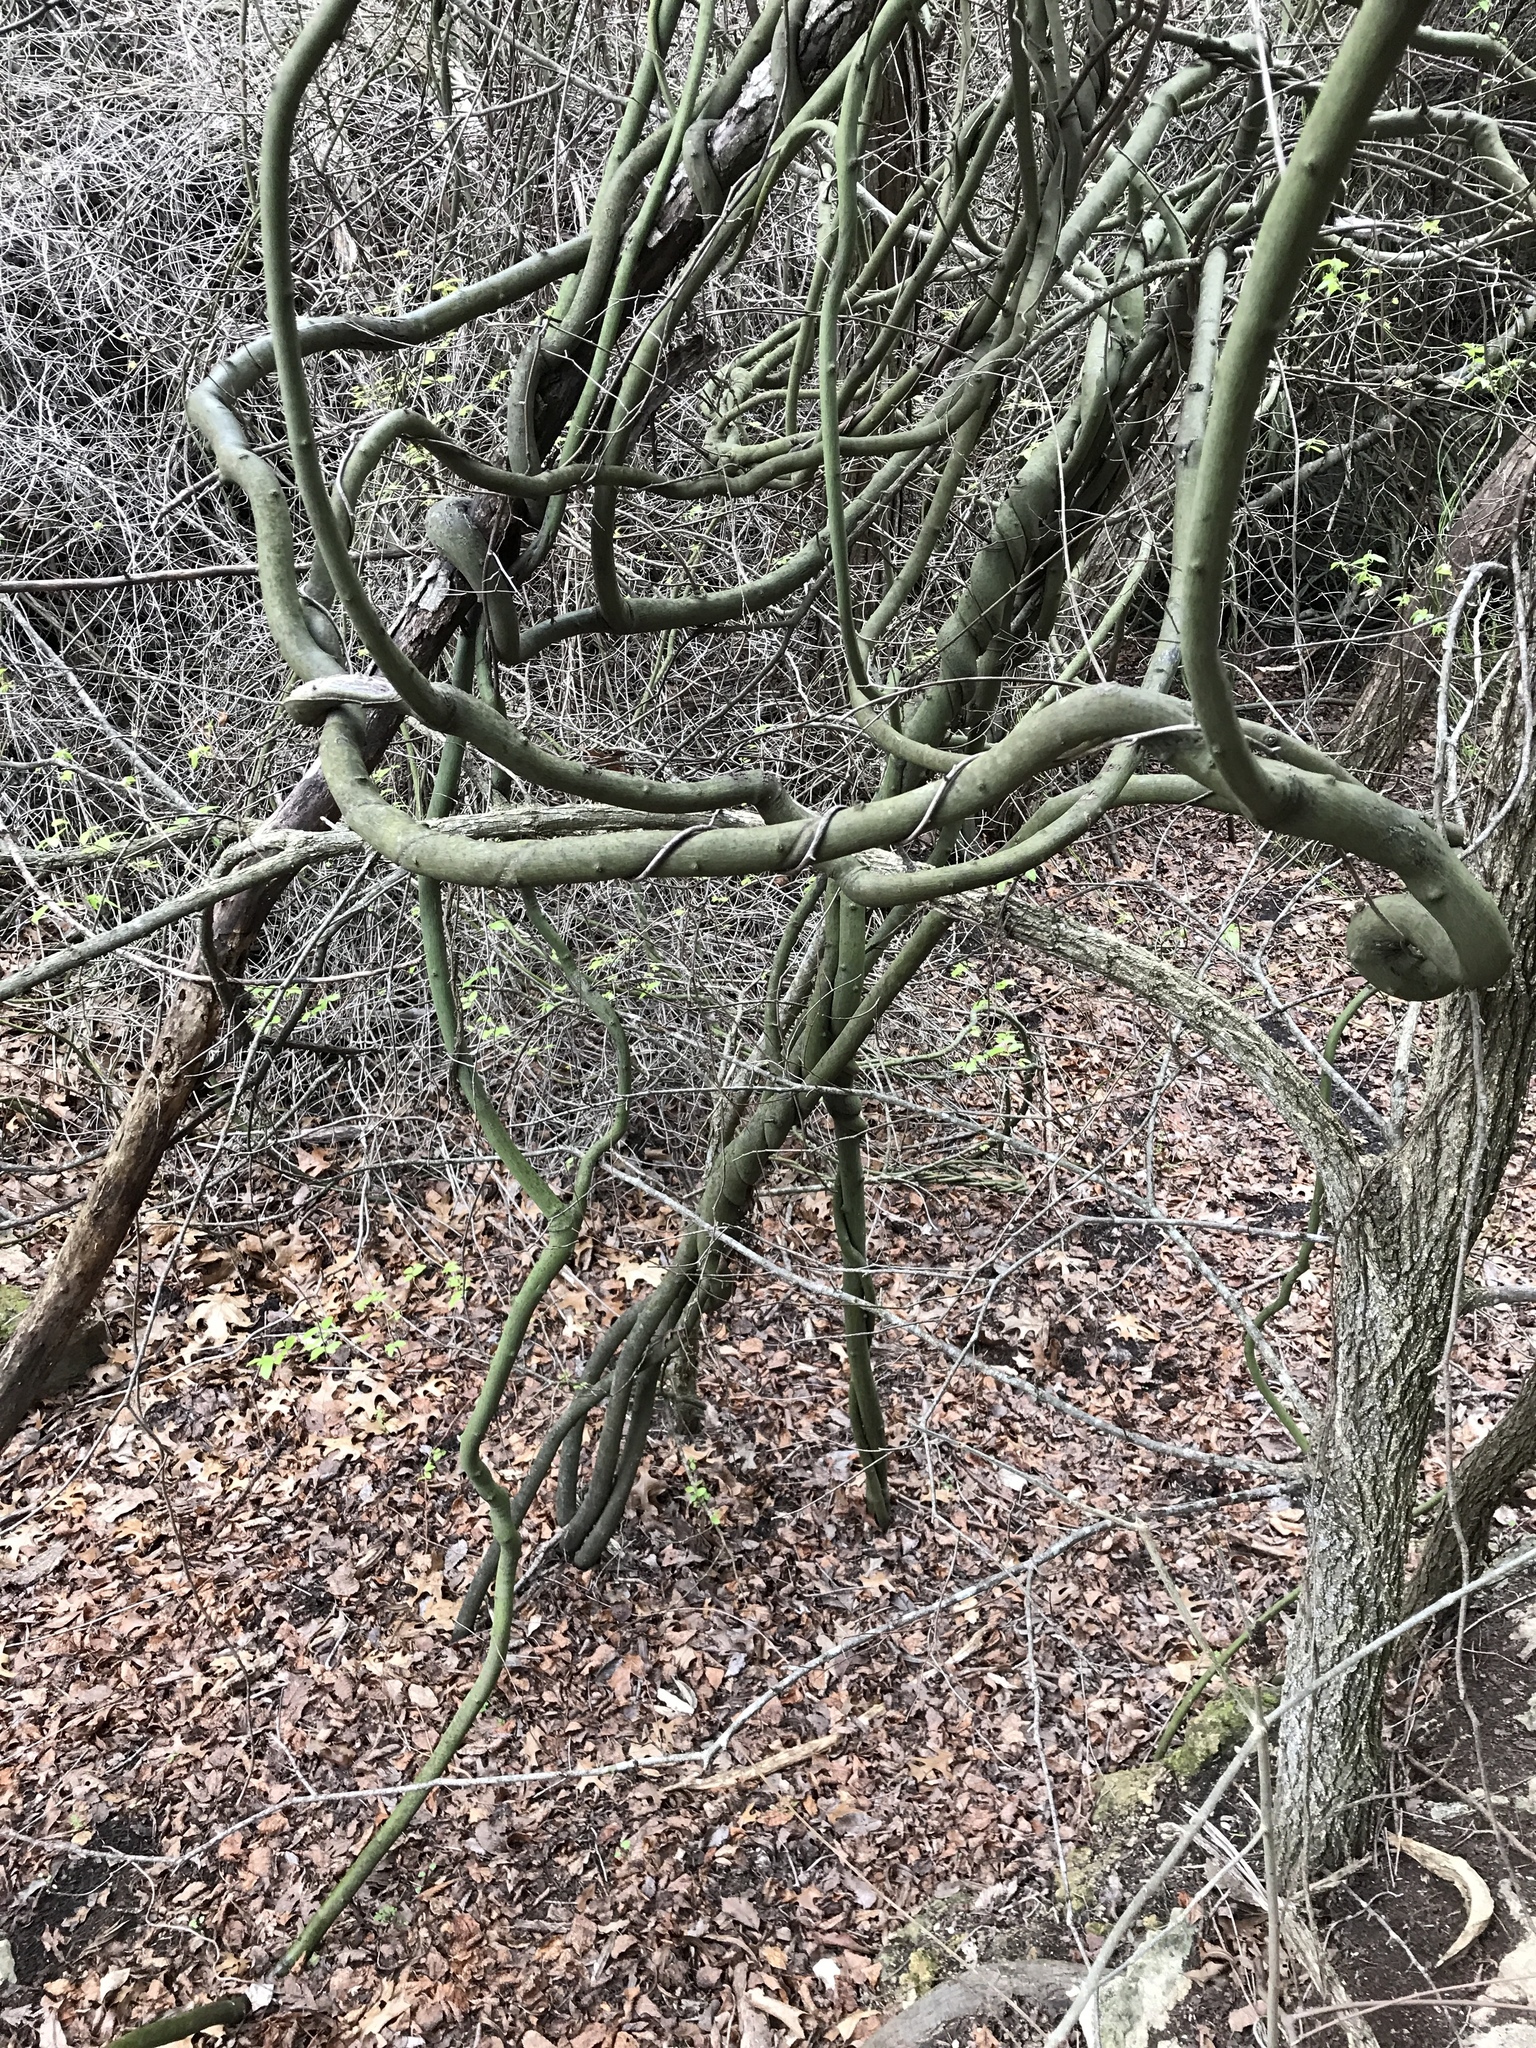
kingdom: Plantae
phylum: Tracheophyta
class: Magnoliopsida
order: Rosales
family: Rhamnaceae
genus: Berchemia
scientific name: Berchemia scandens
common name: Supplejack
